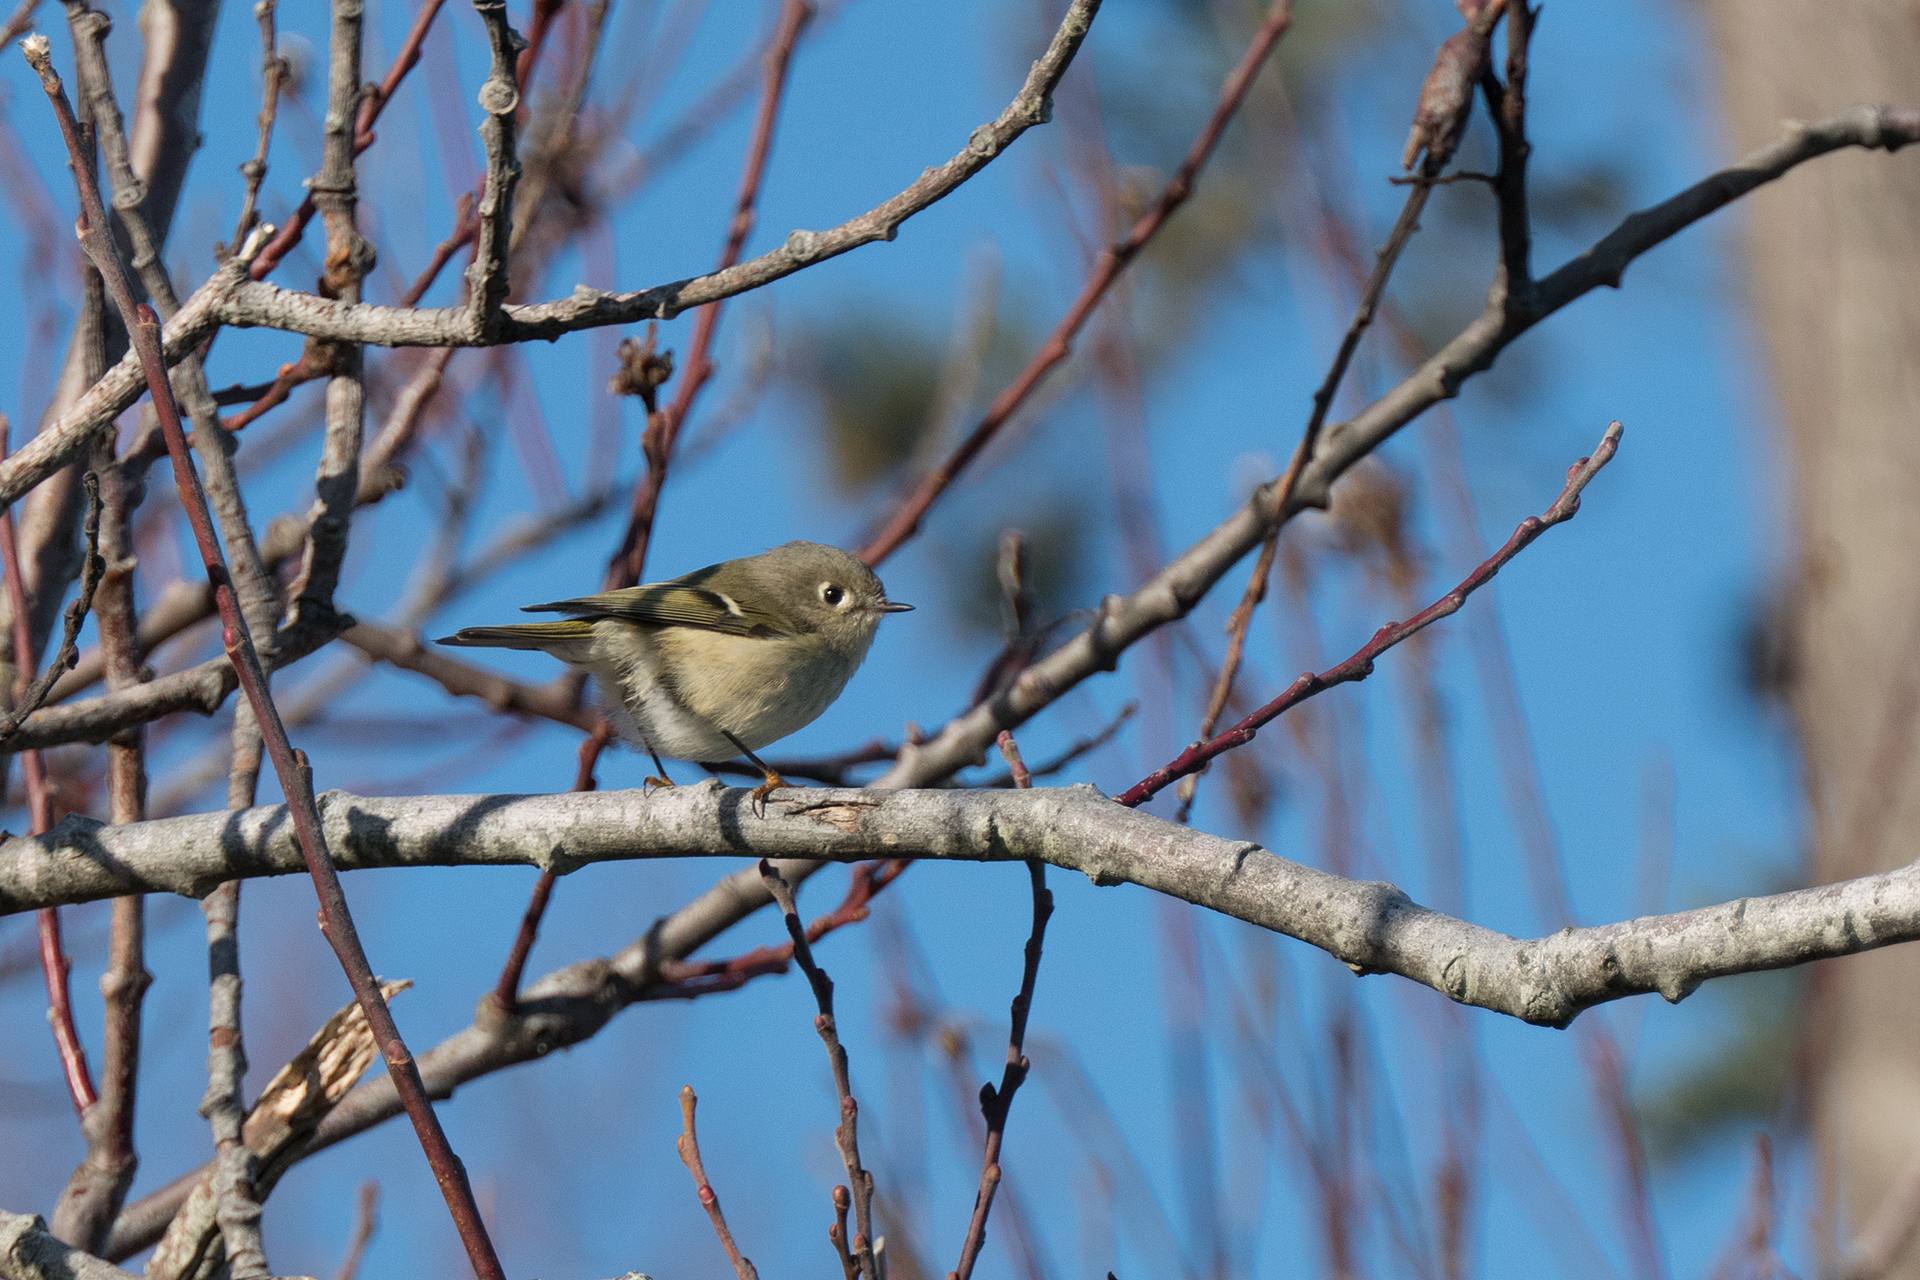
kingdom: Animalia
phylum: Chordata
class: Aves
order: Passeriformes
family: Regulidae
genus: Regulus
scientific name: Regulus calendula
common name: Ruby-crowned kinglet
